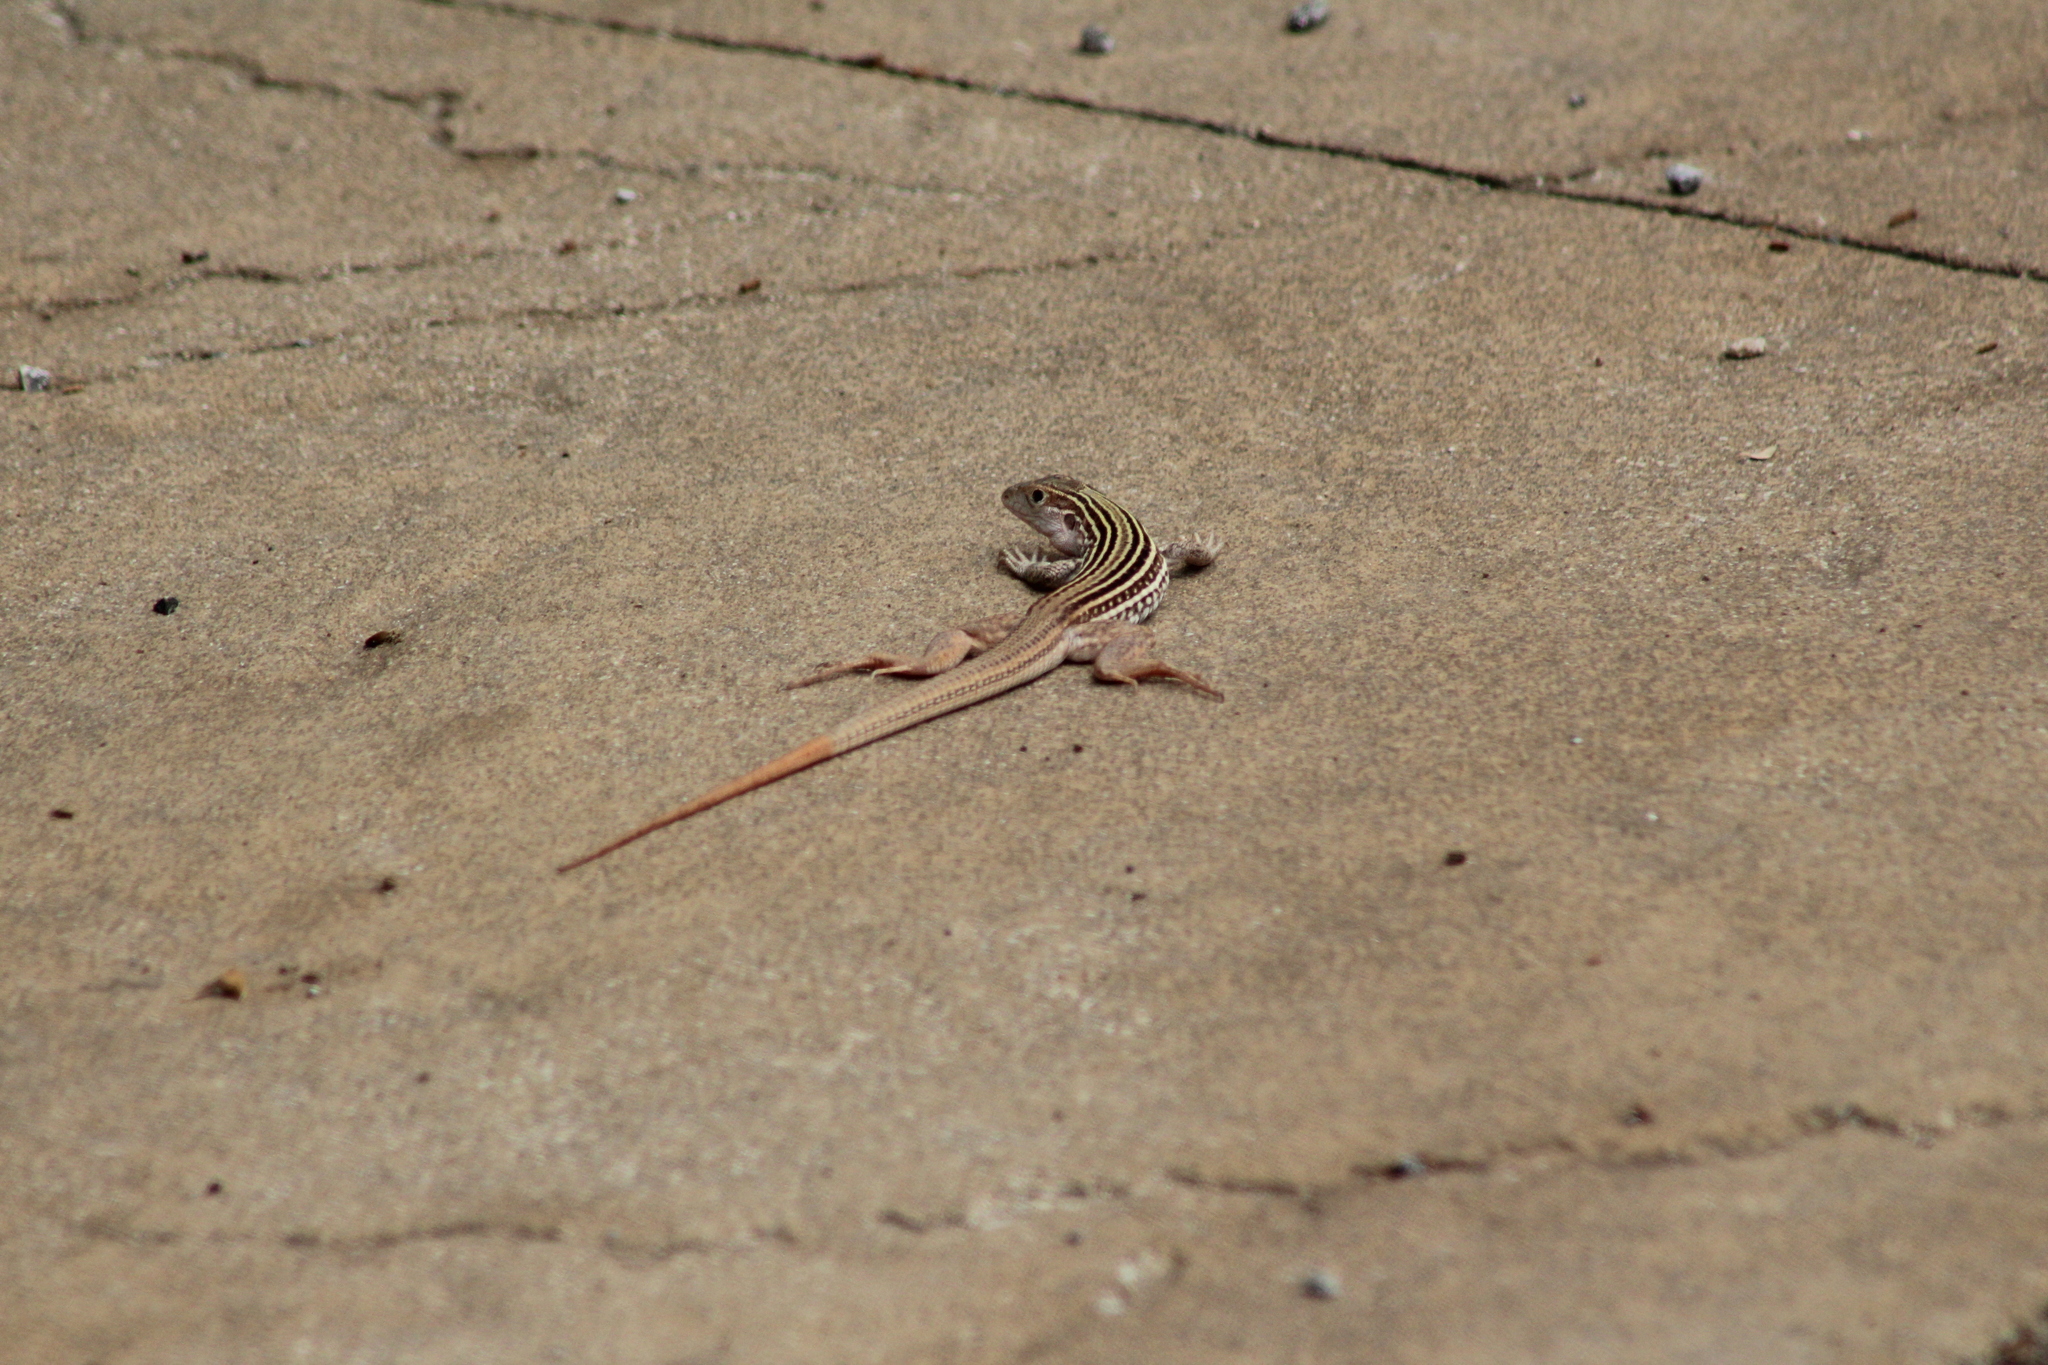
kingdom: Animalia
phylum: Chordata
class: Squamata
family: Teiidae
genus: Aspidoscelis
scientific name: Aspidoscelis gularis
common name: Eastern spotted whiptail
